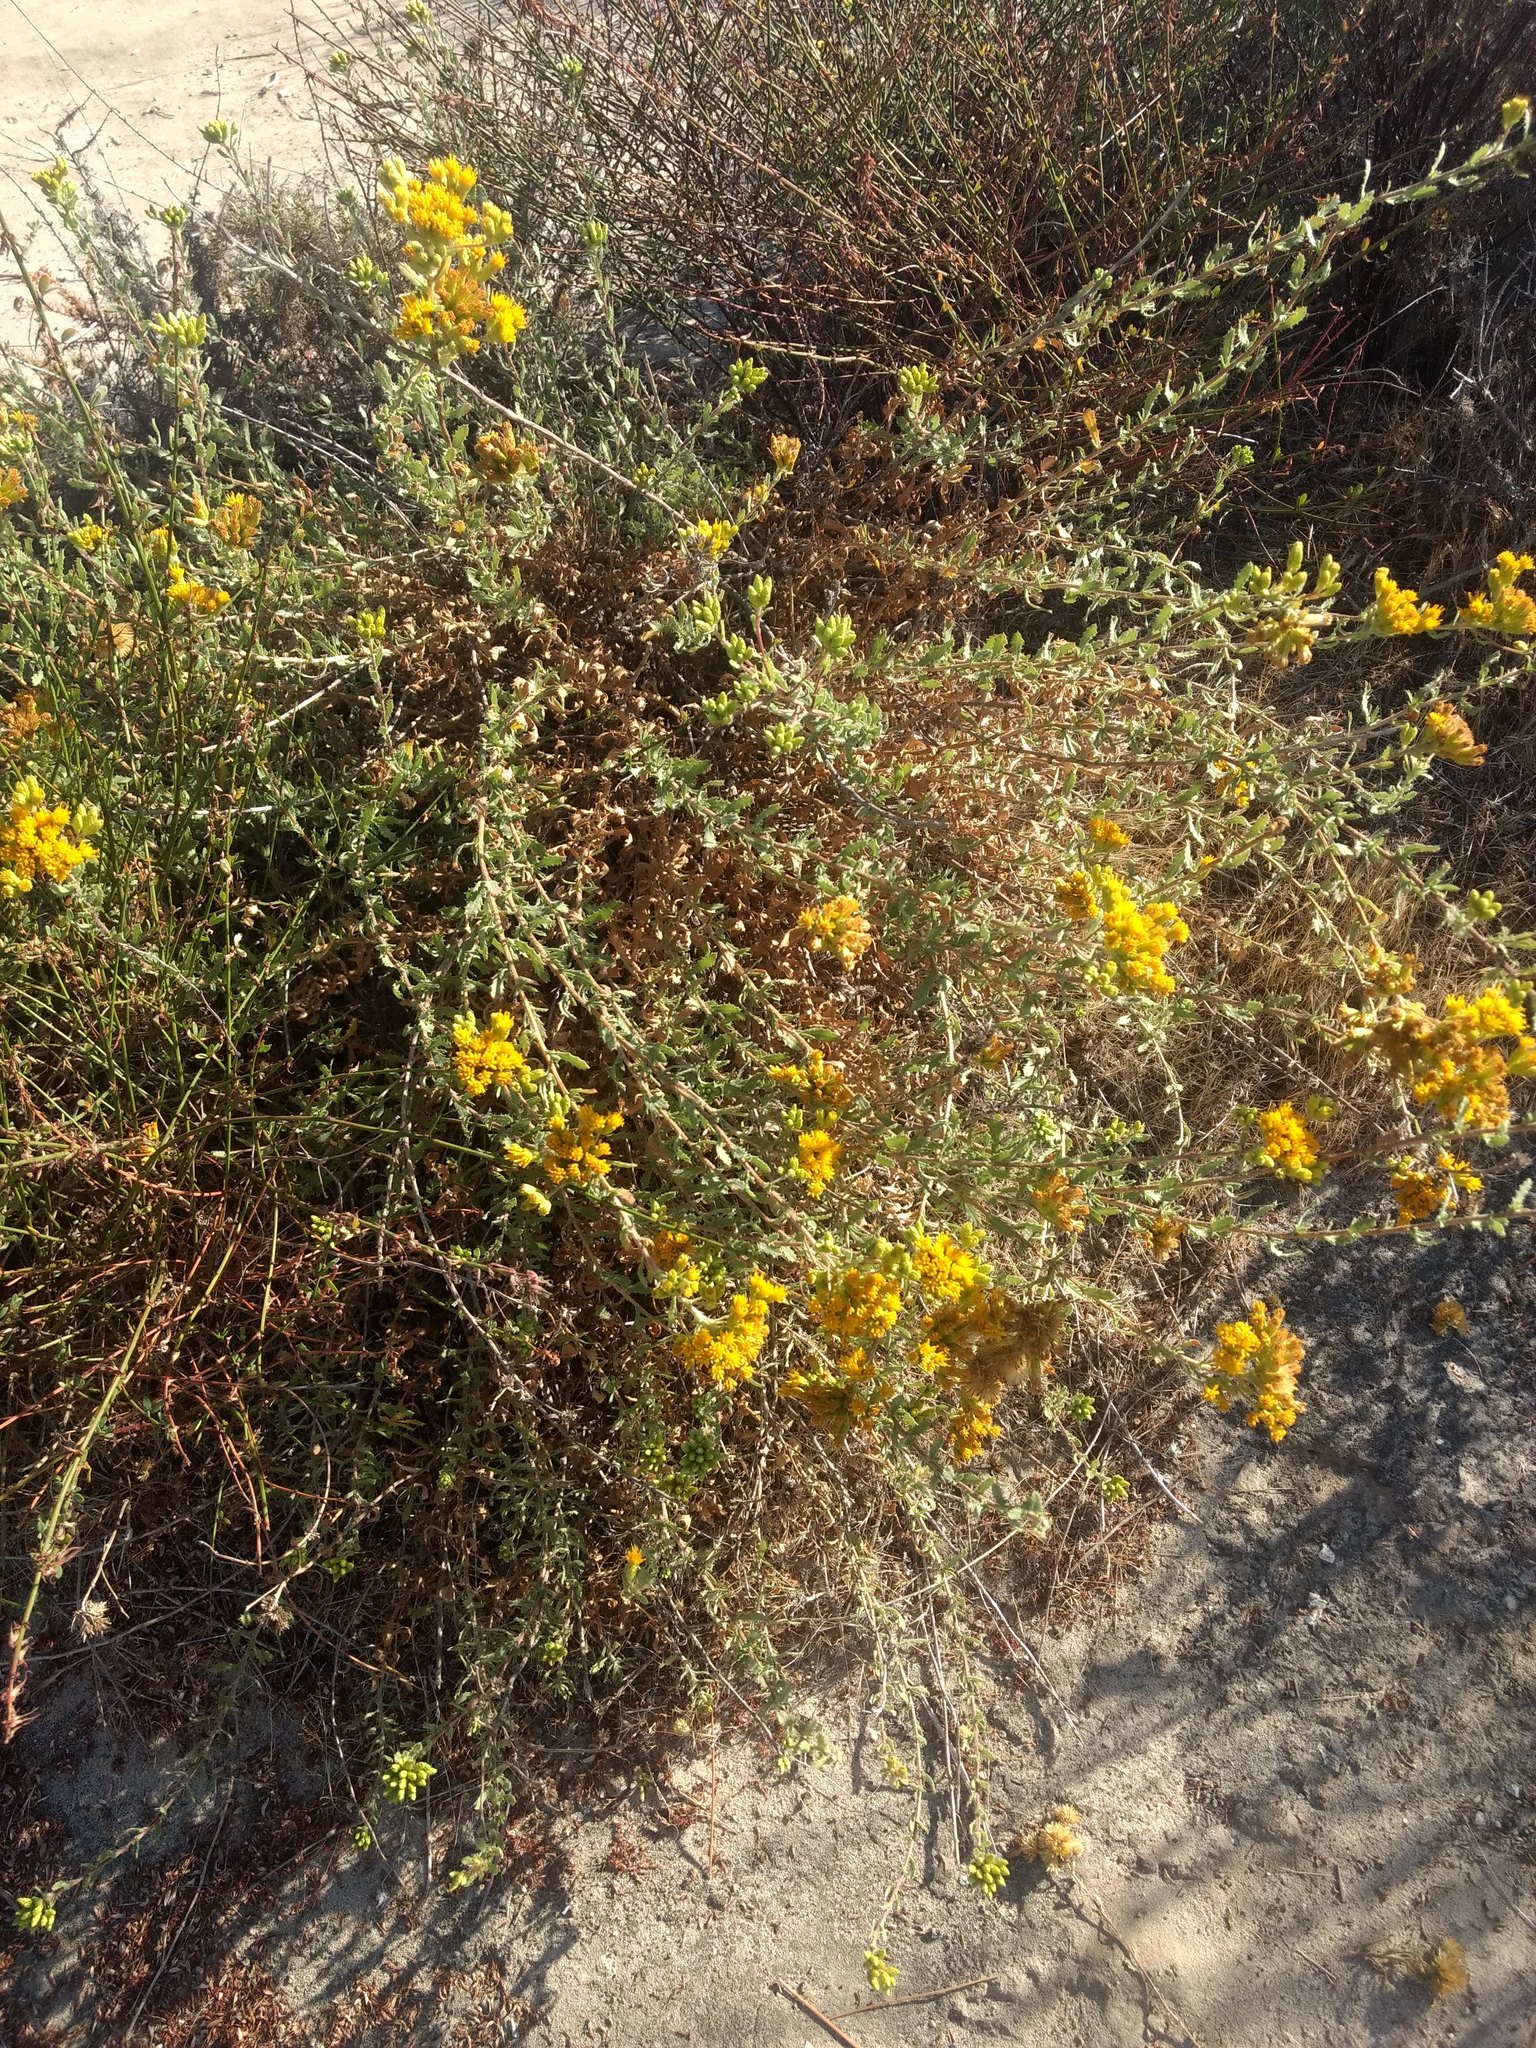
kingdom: Plantae
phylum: Tracheophyta
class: Magnoliopsida
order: Asterales
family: Asteraceae
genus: Isocoma
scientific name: Isocoma menziesii
